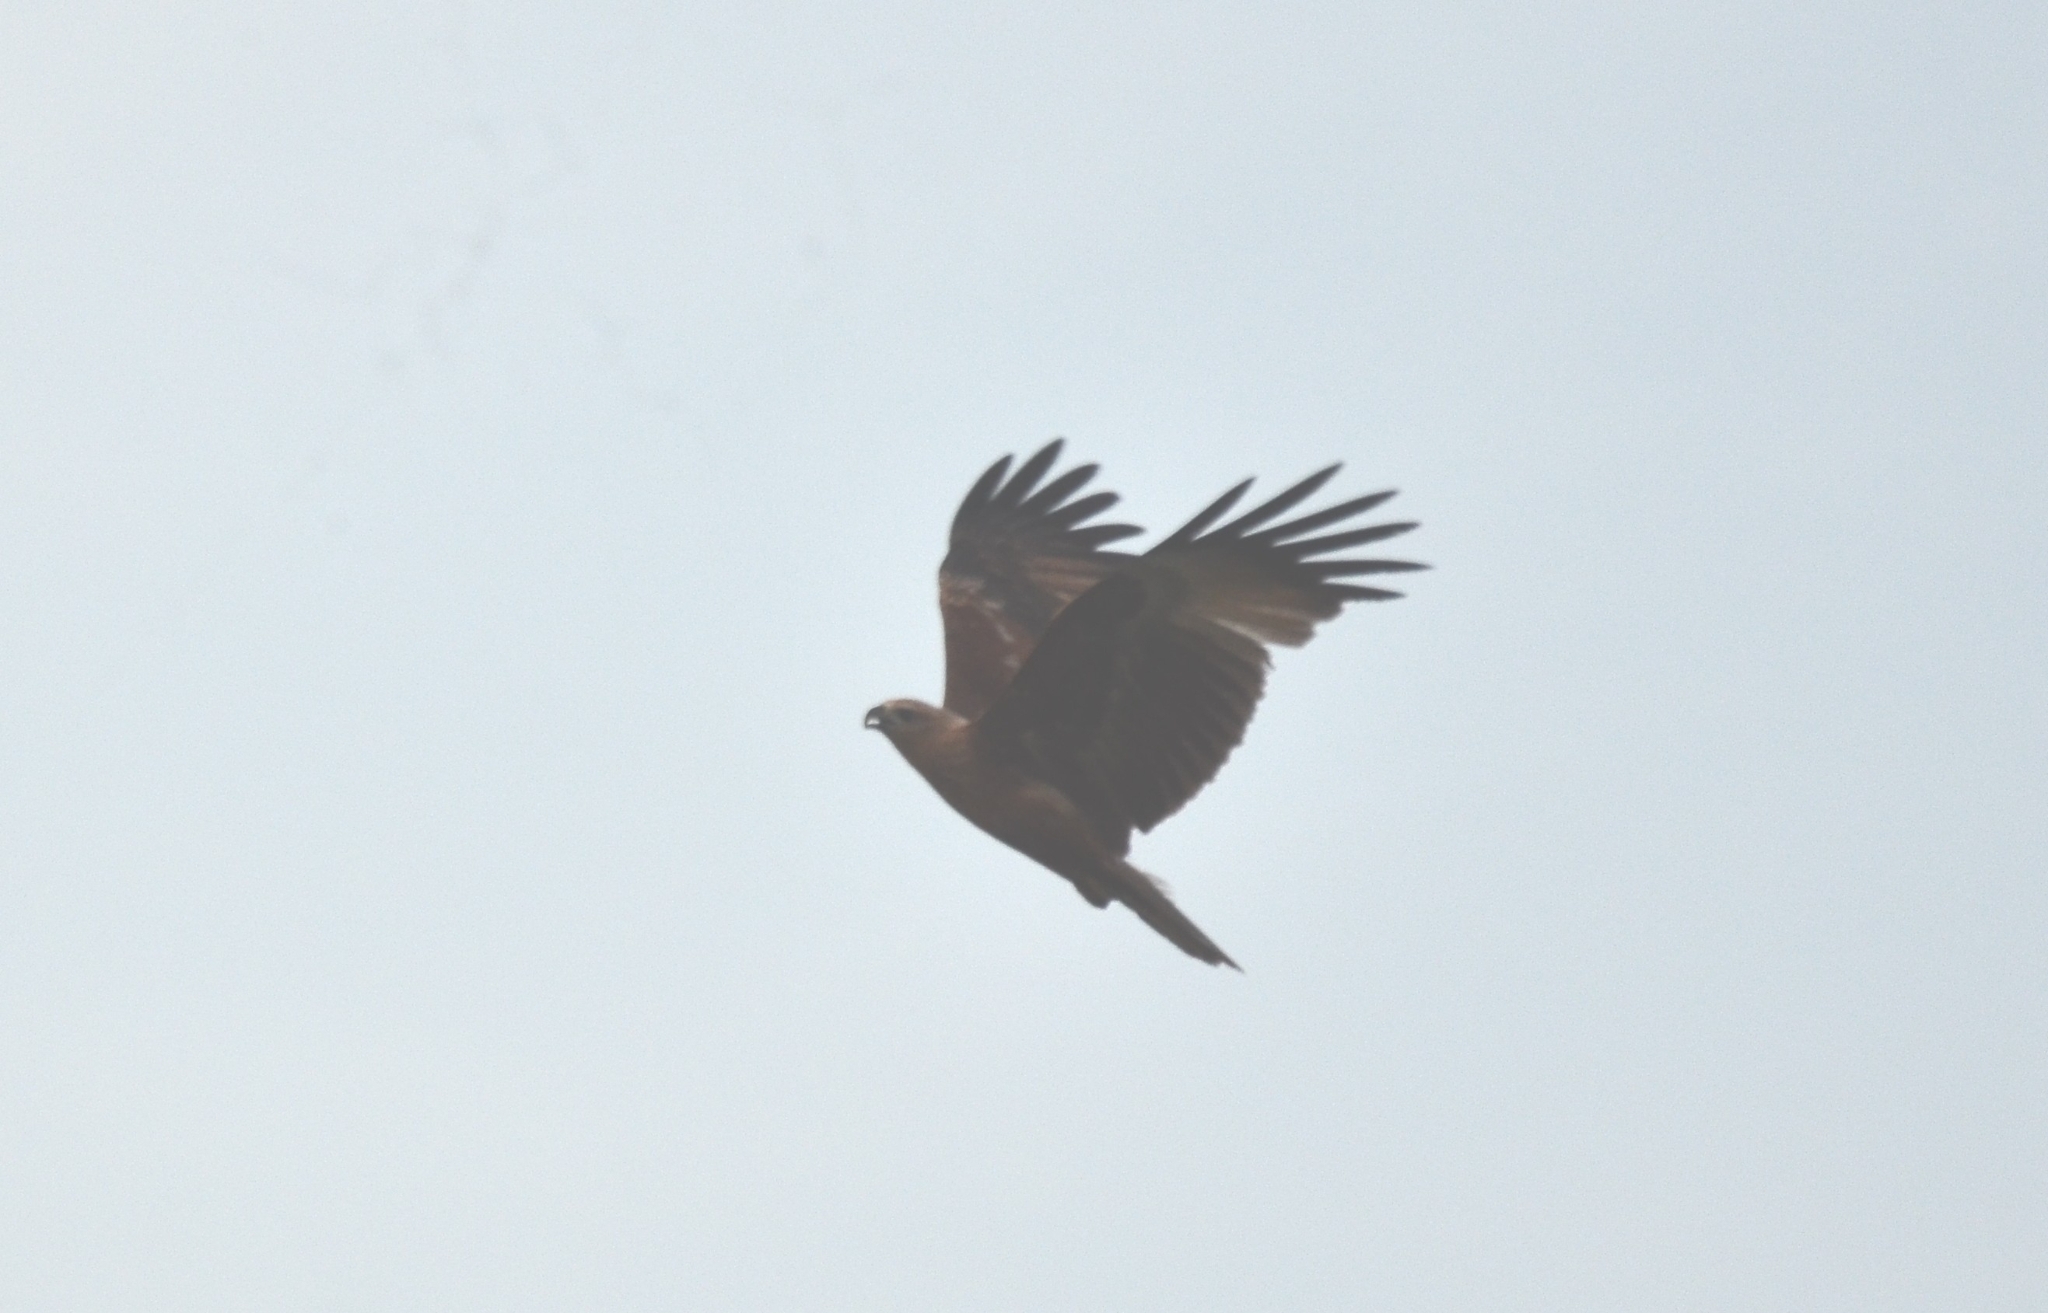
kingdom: Animalia
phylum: Chordata
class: Aves
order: Accipitriformes
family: Accipitridae
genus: Haliastur
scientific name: Haliastur indus
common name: Brahminy kite
